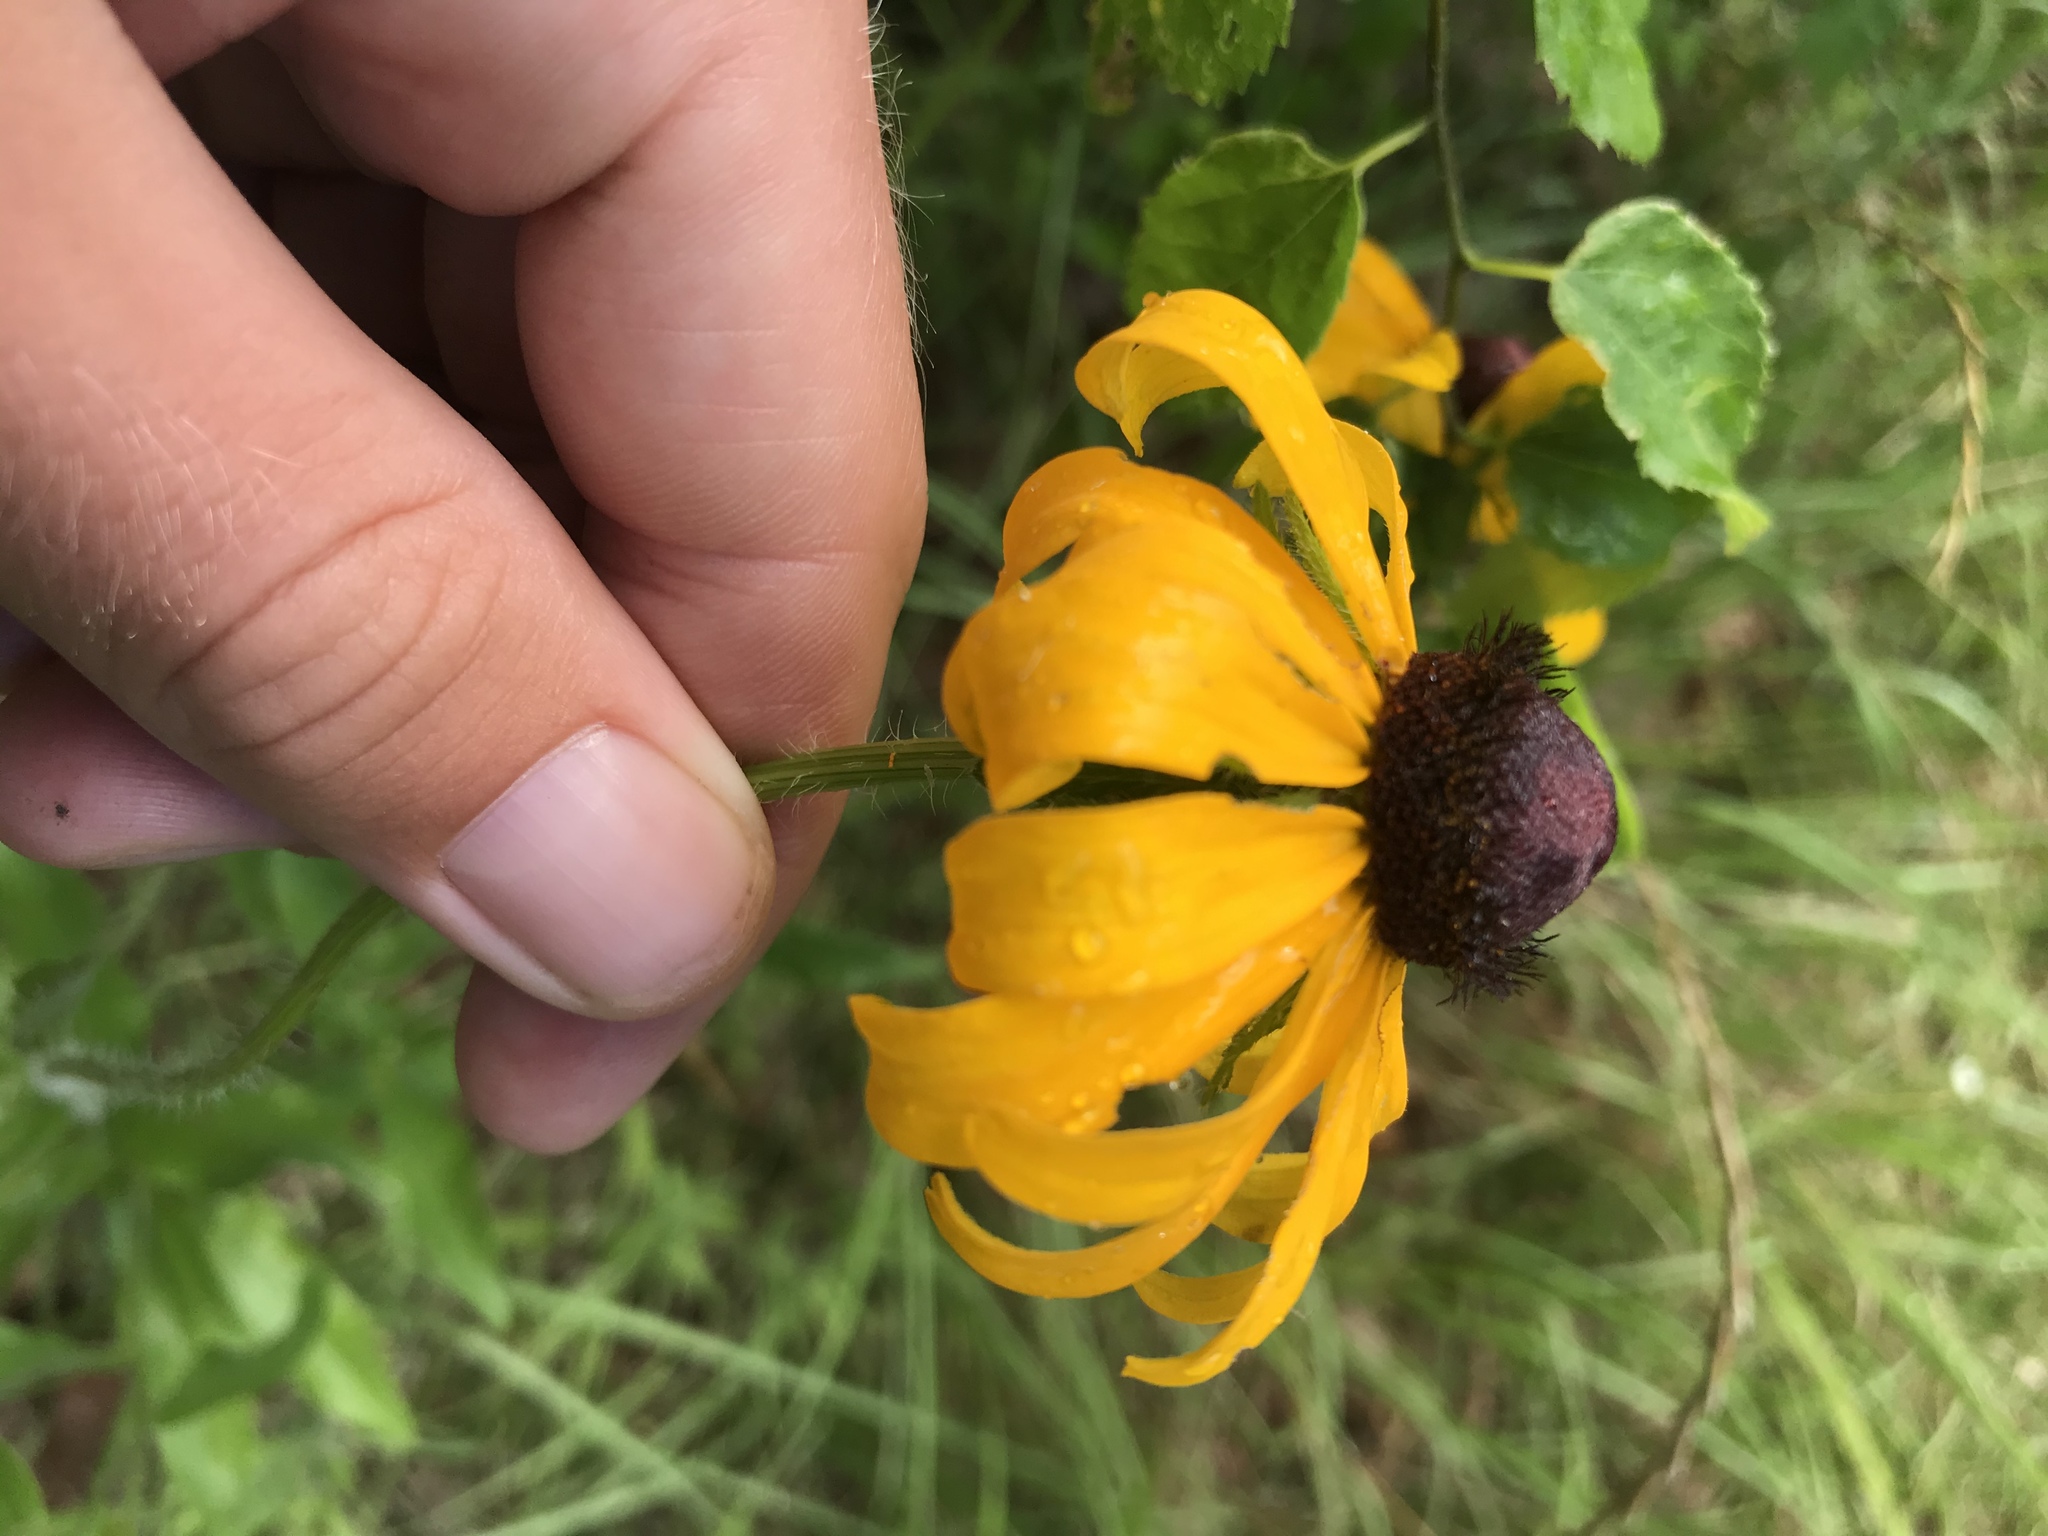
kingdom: Plantae
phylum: Tracheophyta
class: Magnoliopsida
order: Asterales
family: Asteraceae
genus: Rudbeckia
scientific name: Rudbeckia hirta
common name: Black-eyed-susan
